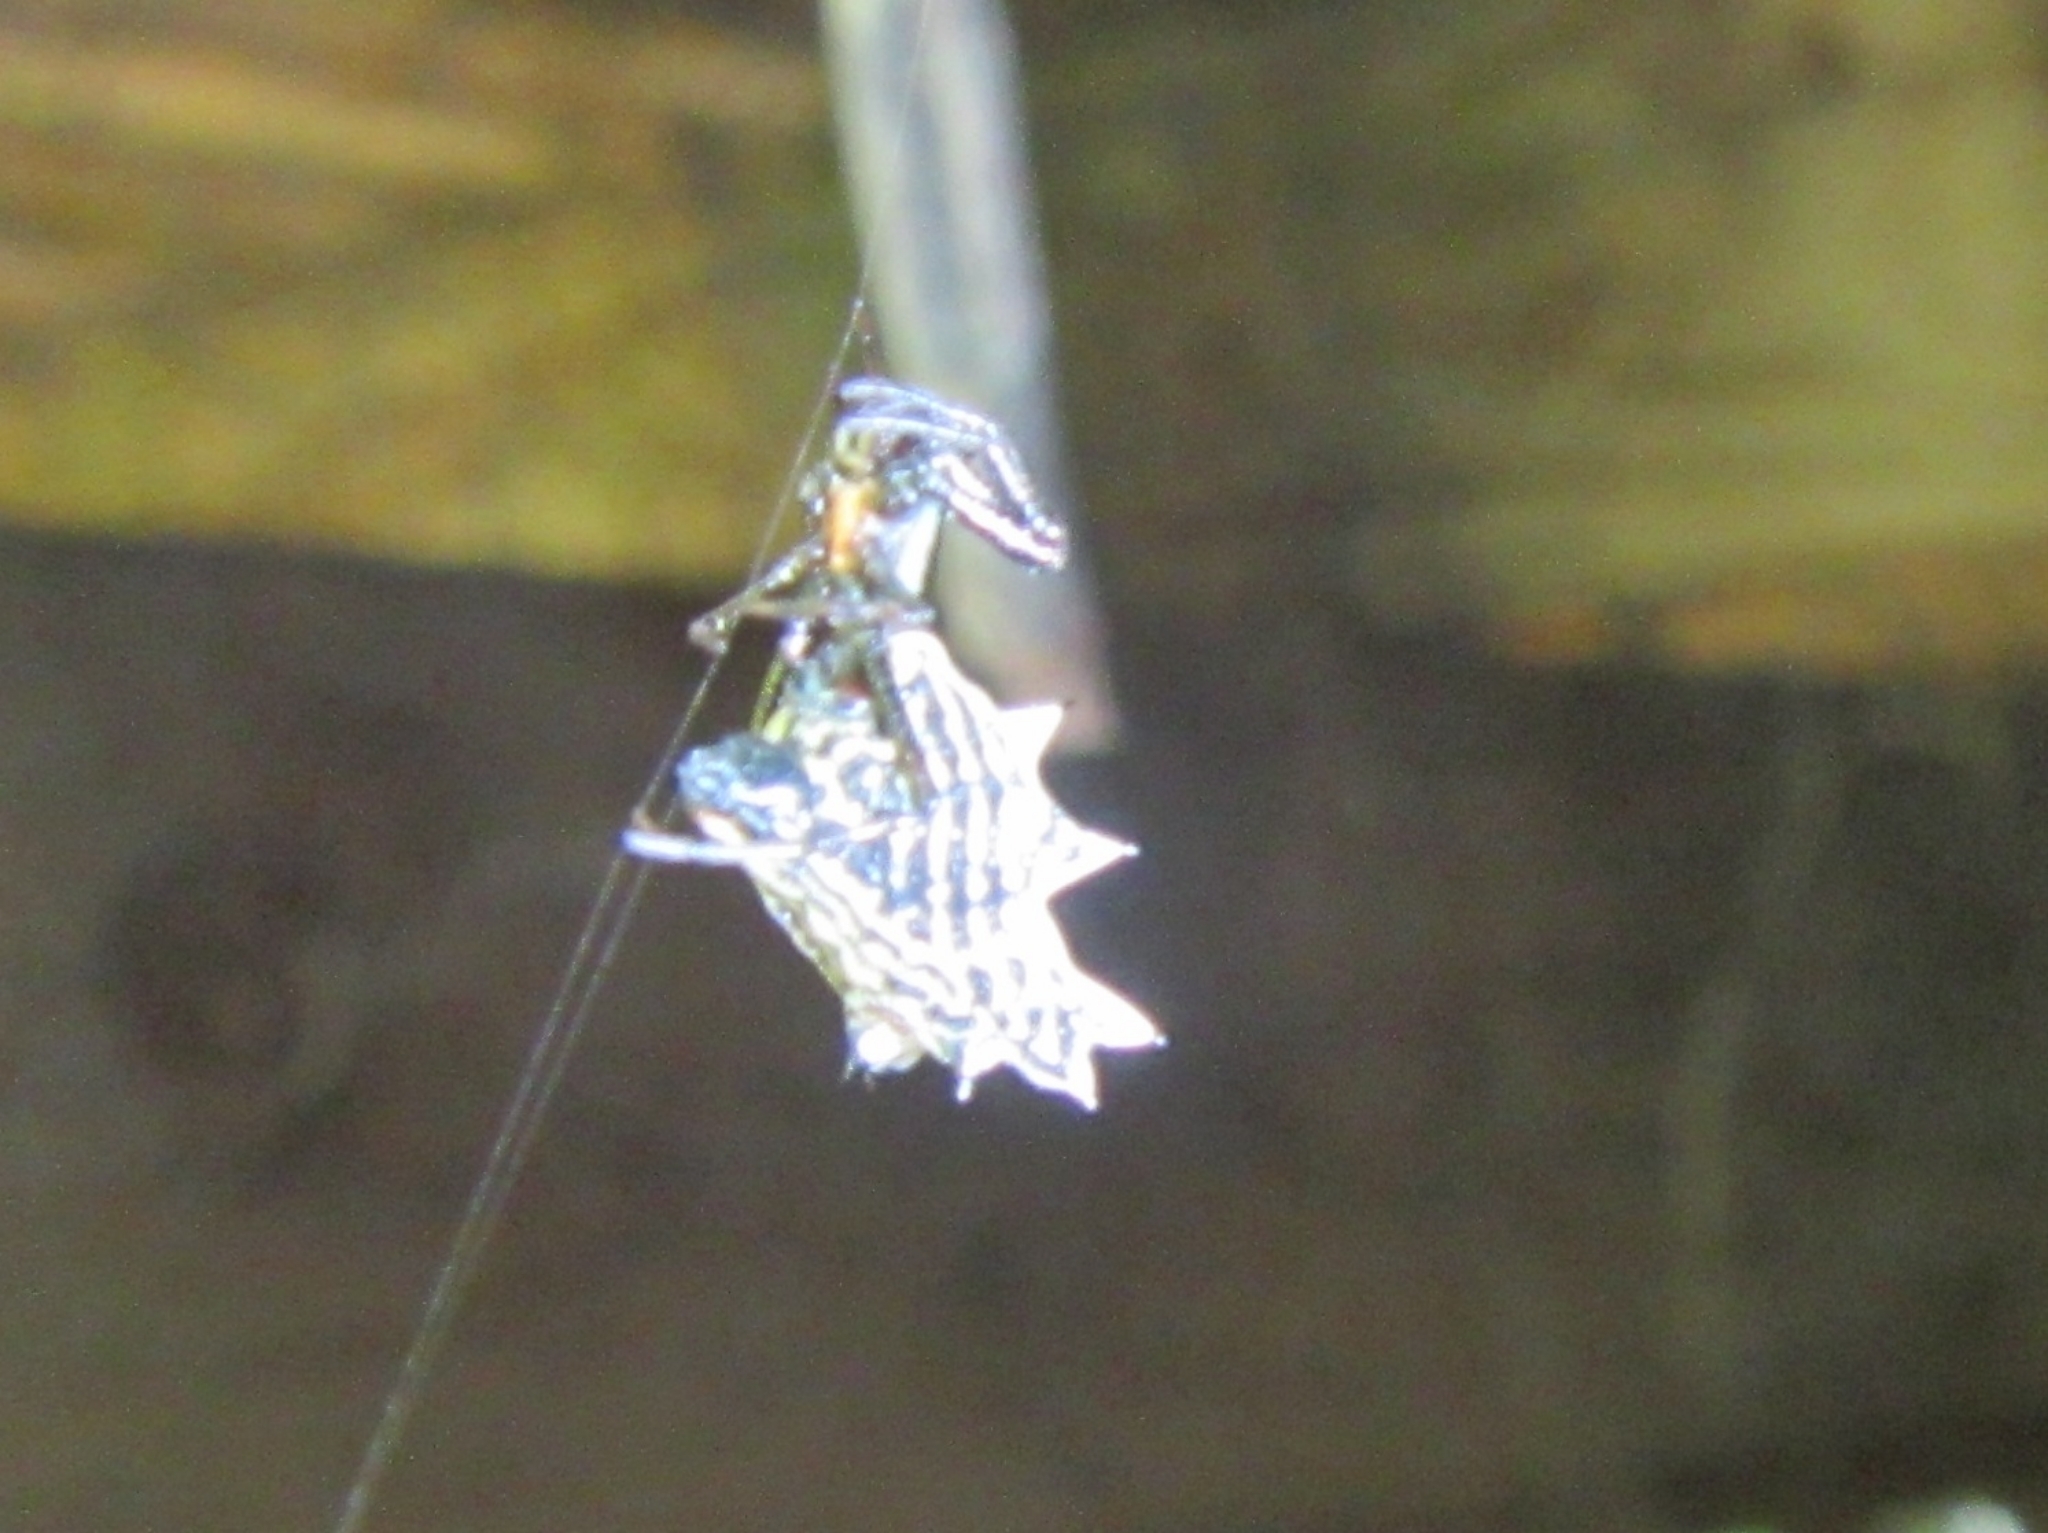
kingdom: Animalia
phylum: Arthropoda
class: Arachnida
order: Araneae
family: Araneidae
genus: Micrathena
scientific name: Micrathena gracilis
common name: Orb weavers
